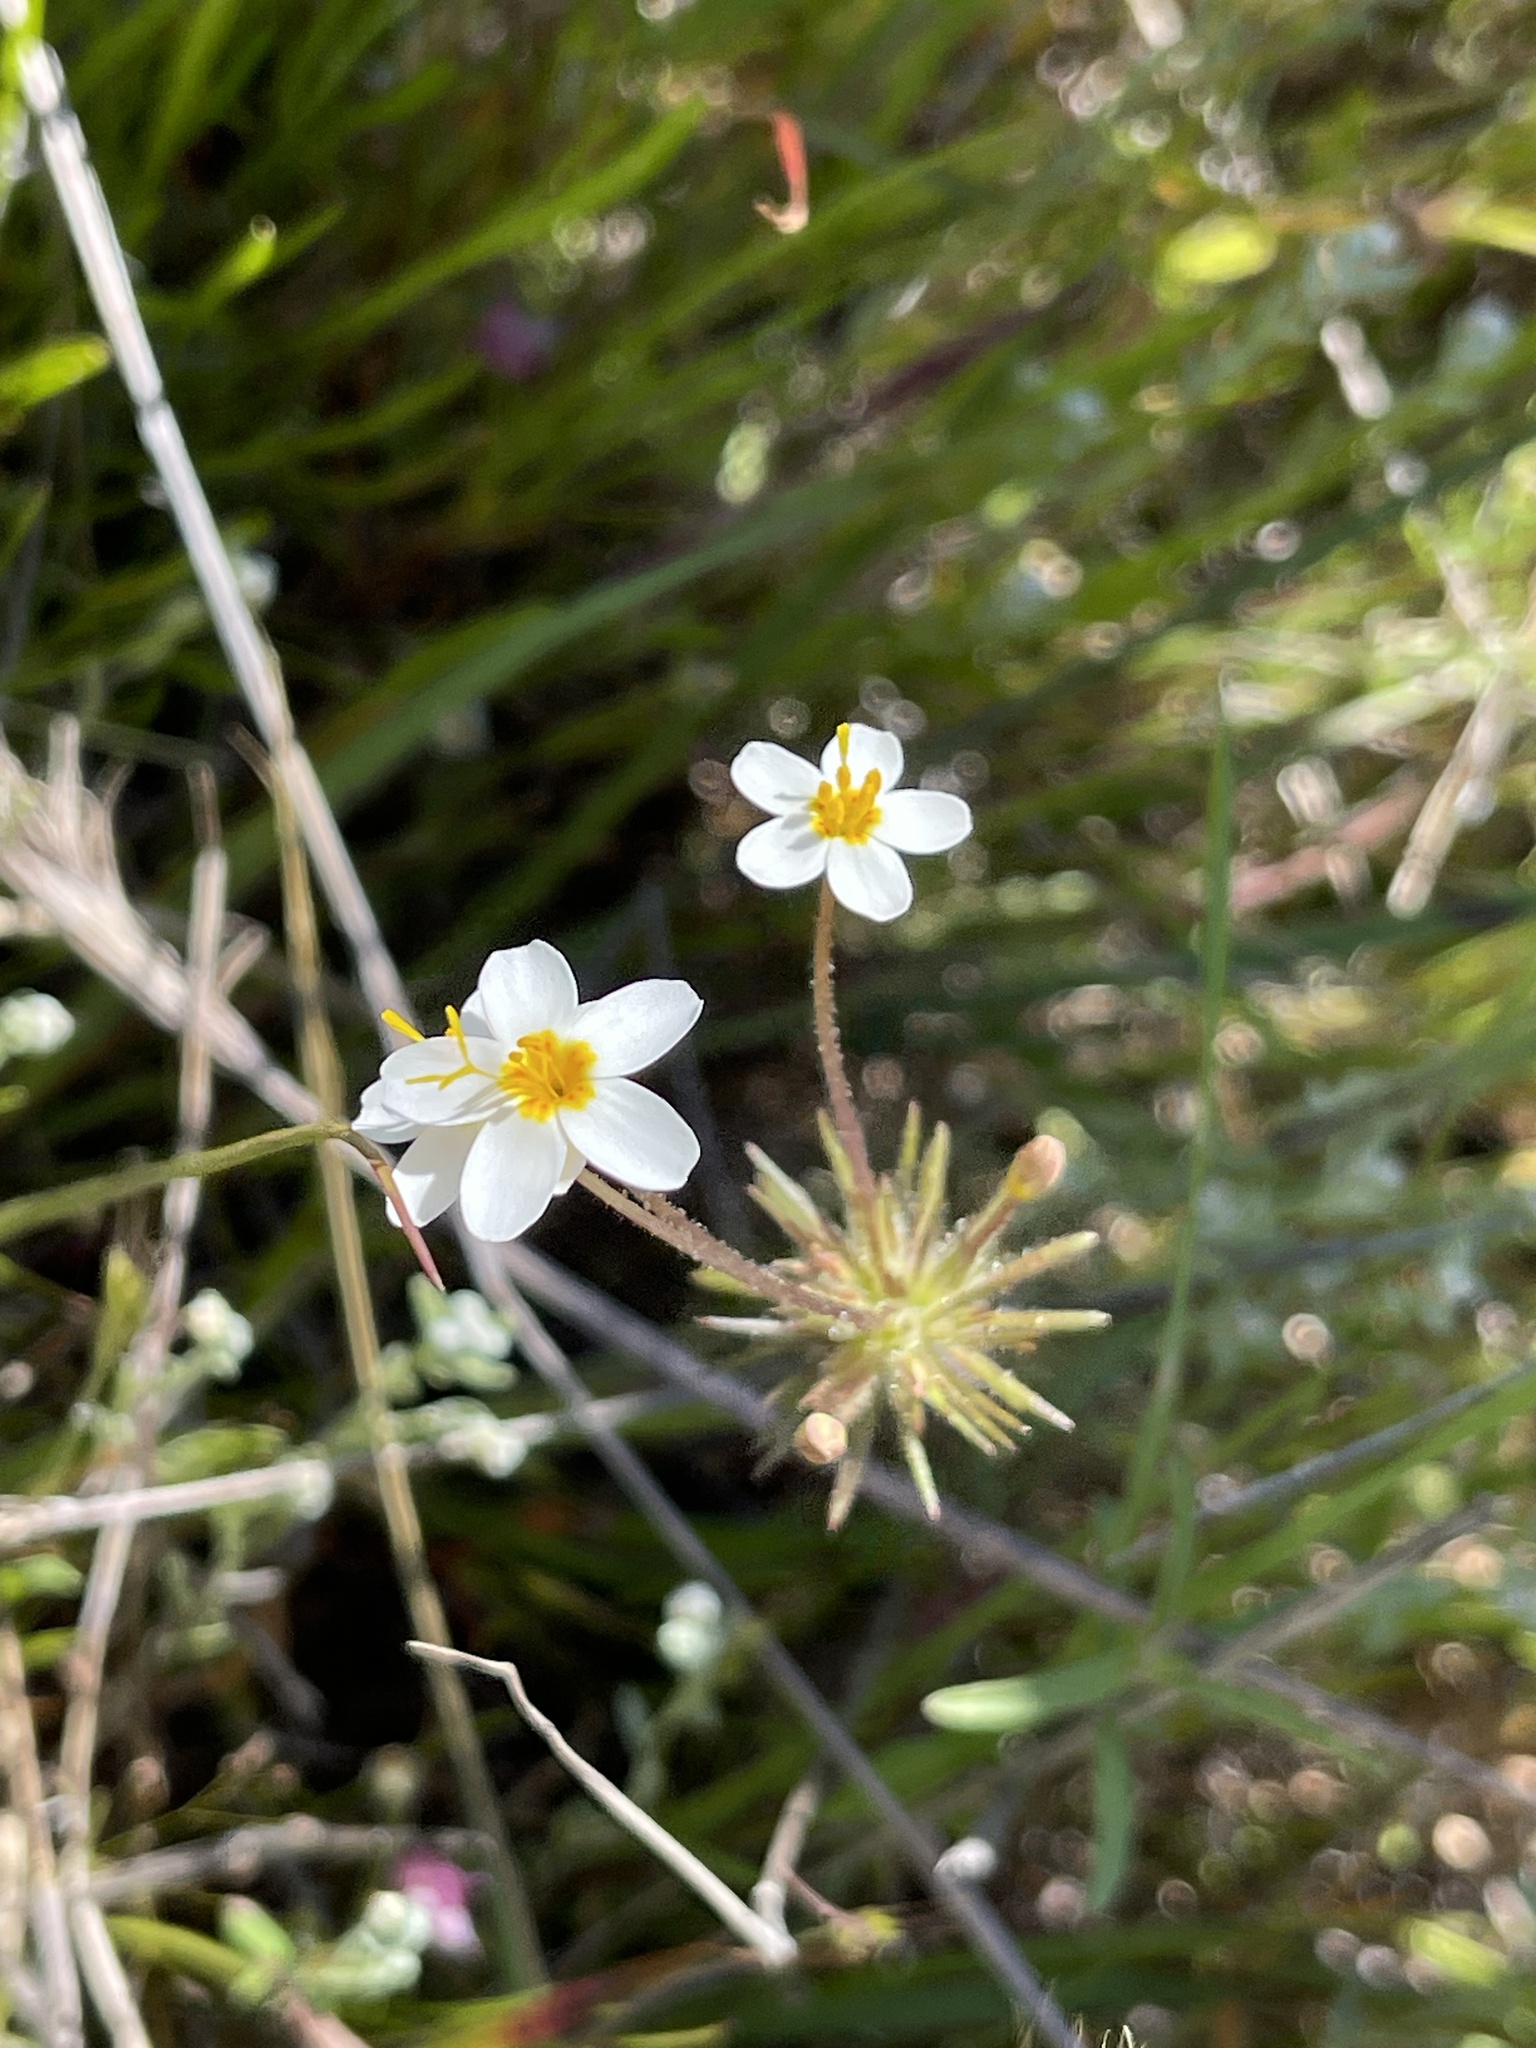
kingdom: Plantae
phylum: Tracheophyta
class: Magnoliopsida
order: Ericales
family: Polemoniaceae
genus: Leptosiphon
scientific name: Leptosiphon parviflorus
